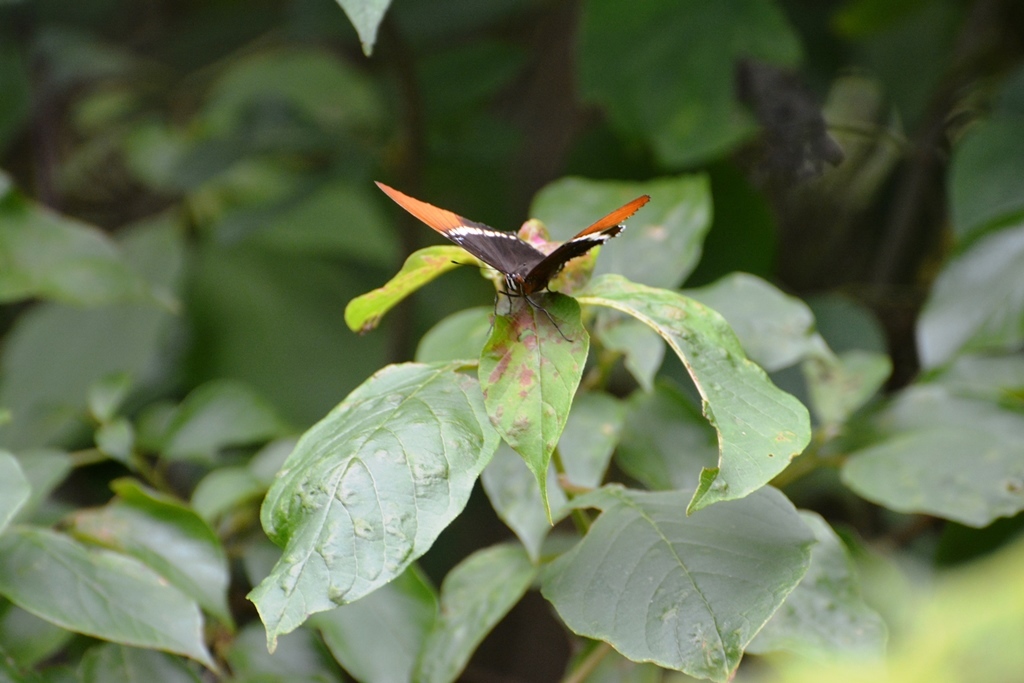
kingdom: Animalia
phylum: Arthropoda
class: Insecta
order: Lepidoptera
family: Nymphalidae
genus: Siproeta
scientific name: Siproeta epaphus
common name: Rusty-tipped page
